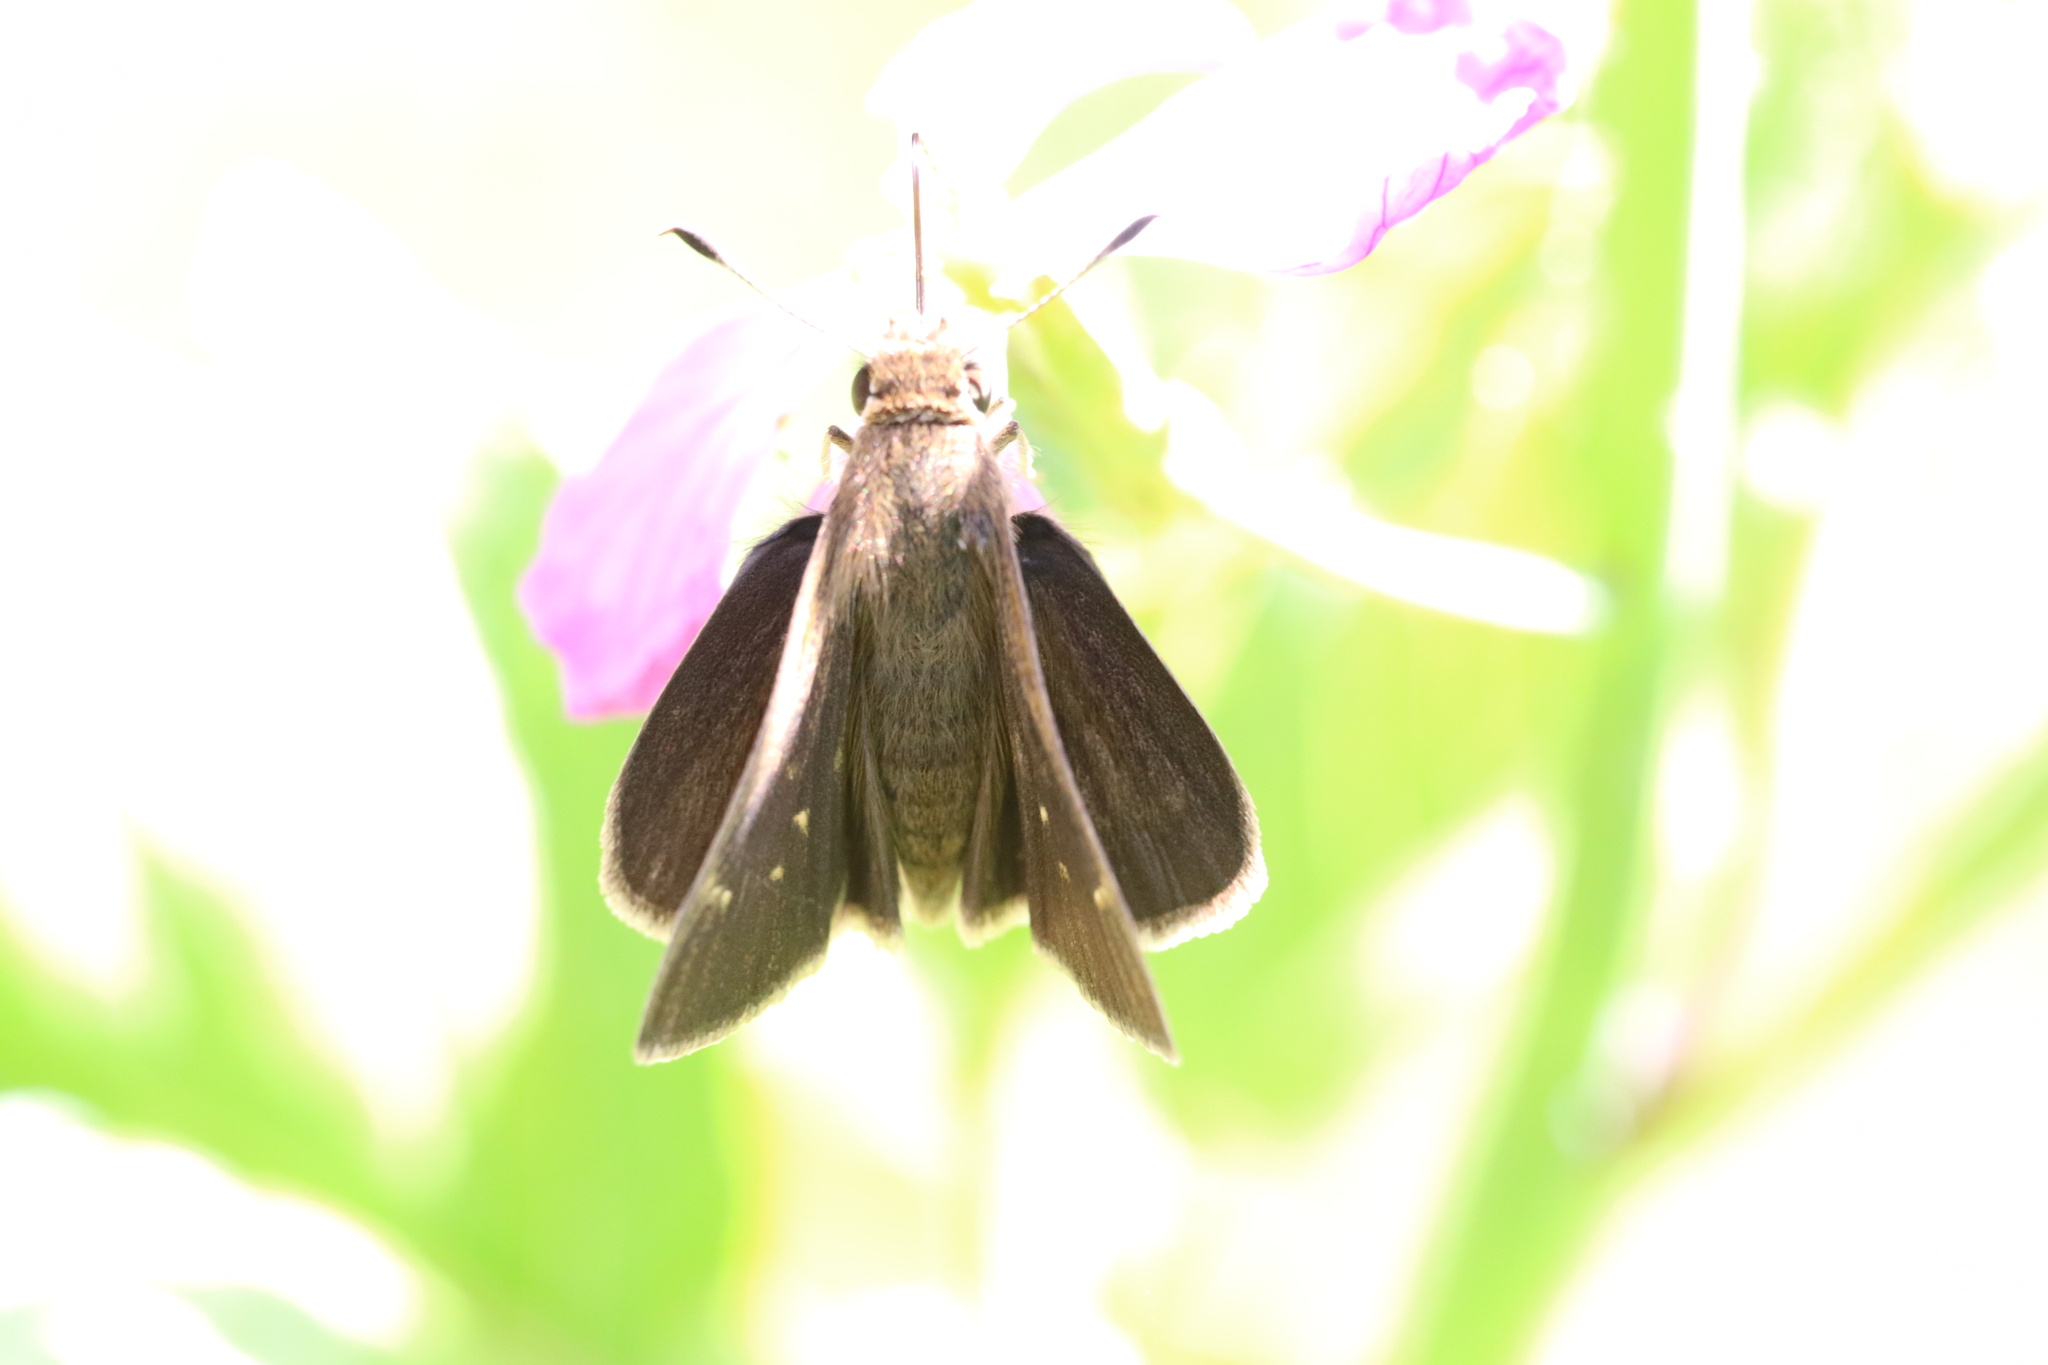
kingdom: Animalia
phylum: Arthropoda
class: Insecta
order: Lepidoptera
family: Hesperiidae
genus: Lerodea
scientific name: Lerodea eufala
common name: Eufala skipper
